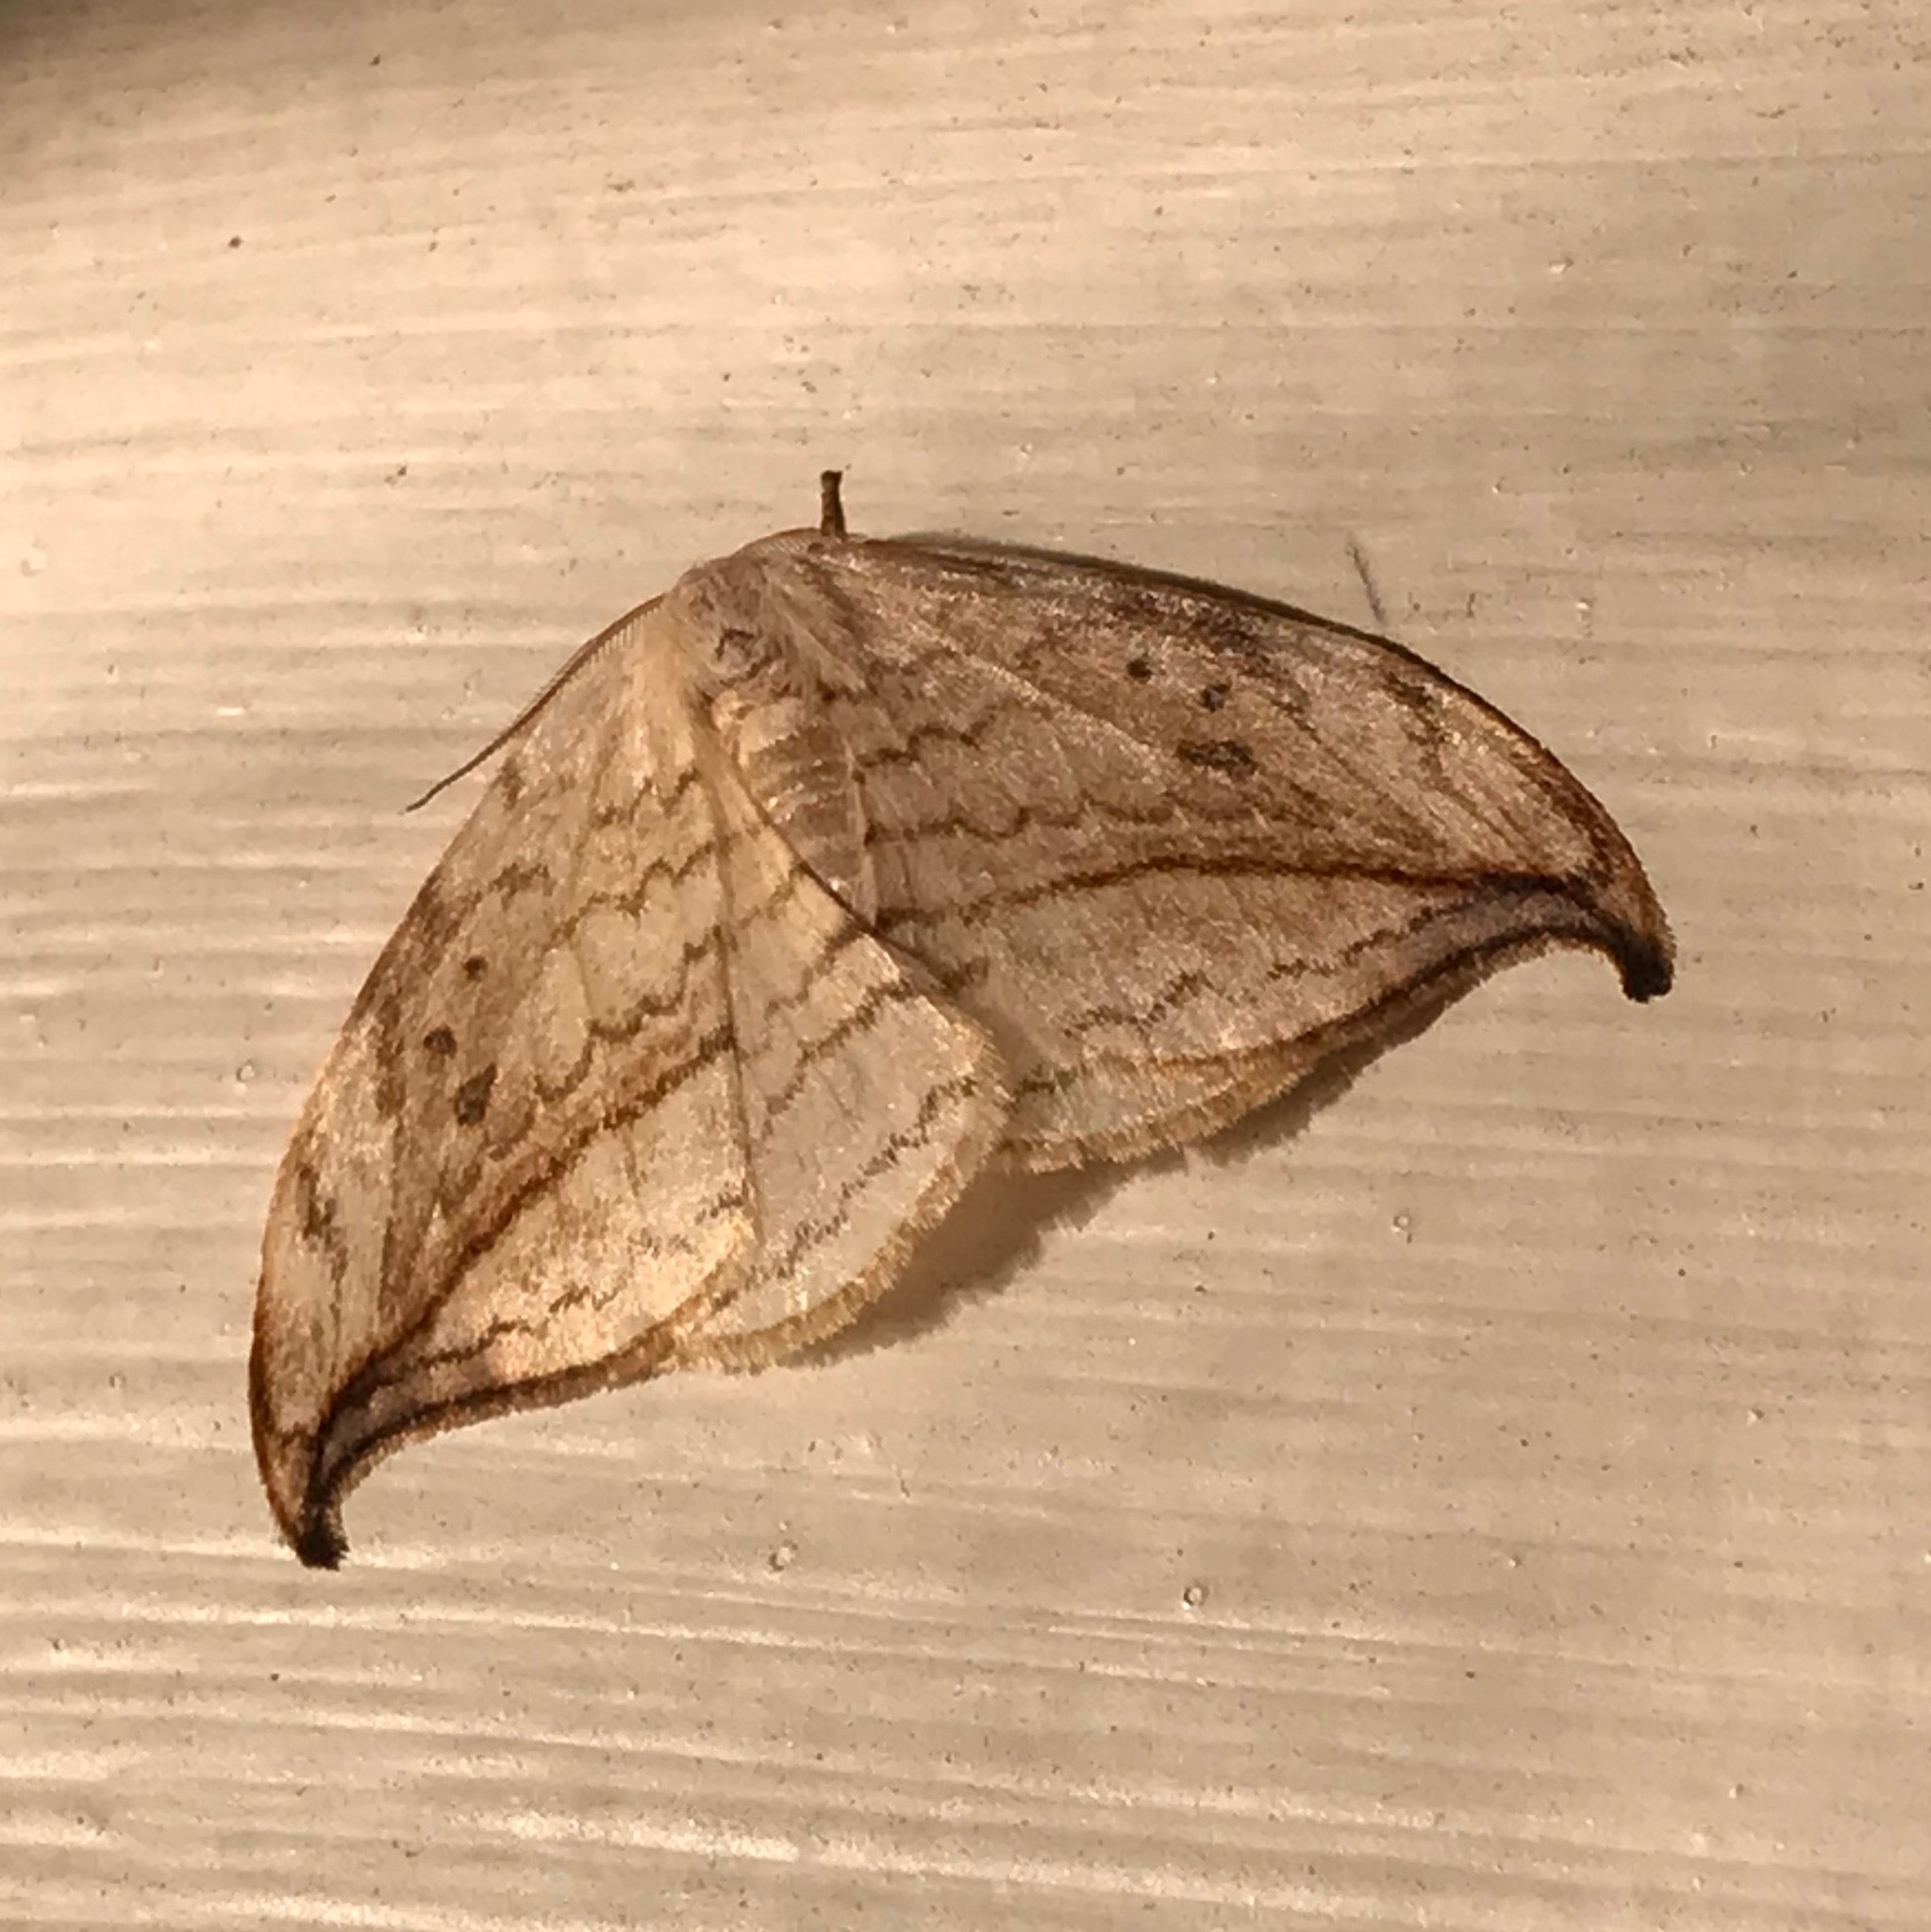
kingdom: Animalia
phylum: Arthropoda
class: Insecta
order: Lepidoptera
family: Drepanidae
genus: Drepana
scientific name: Drepana arcuata
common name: Arched hooktip moth
